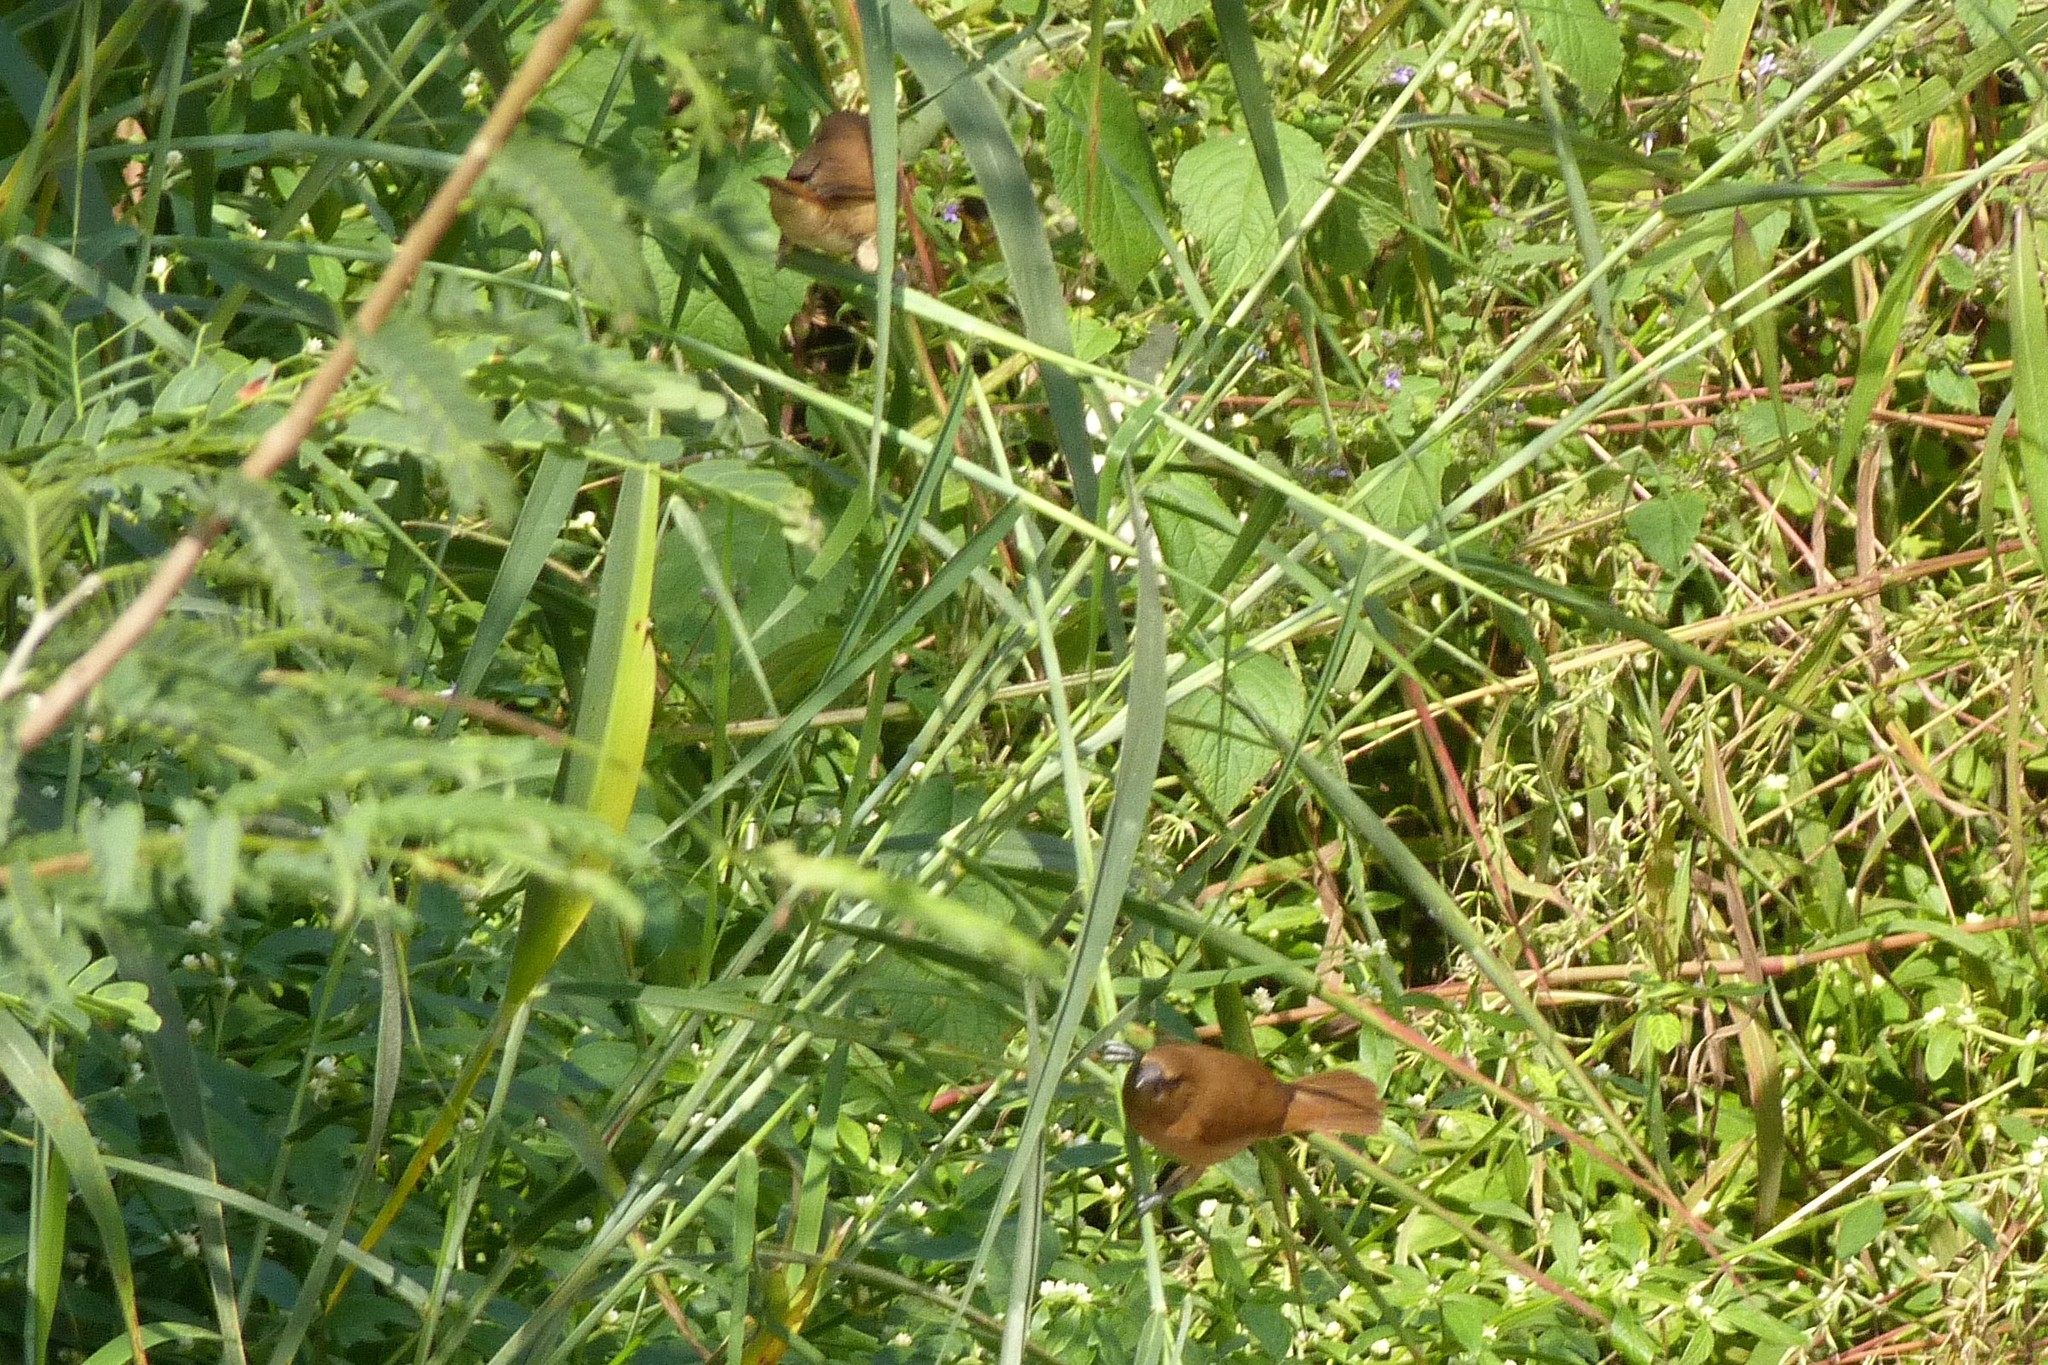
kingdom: Animalia
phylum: Chordata
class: Aves
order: Passeriformes
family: Estrildidae
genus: Lonchura
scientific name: Lonchura punctulata
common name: Scaly-breasted munia
